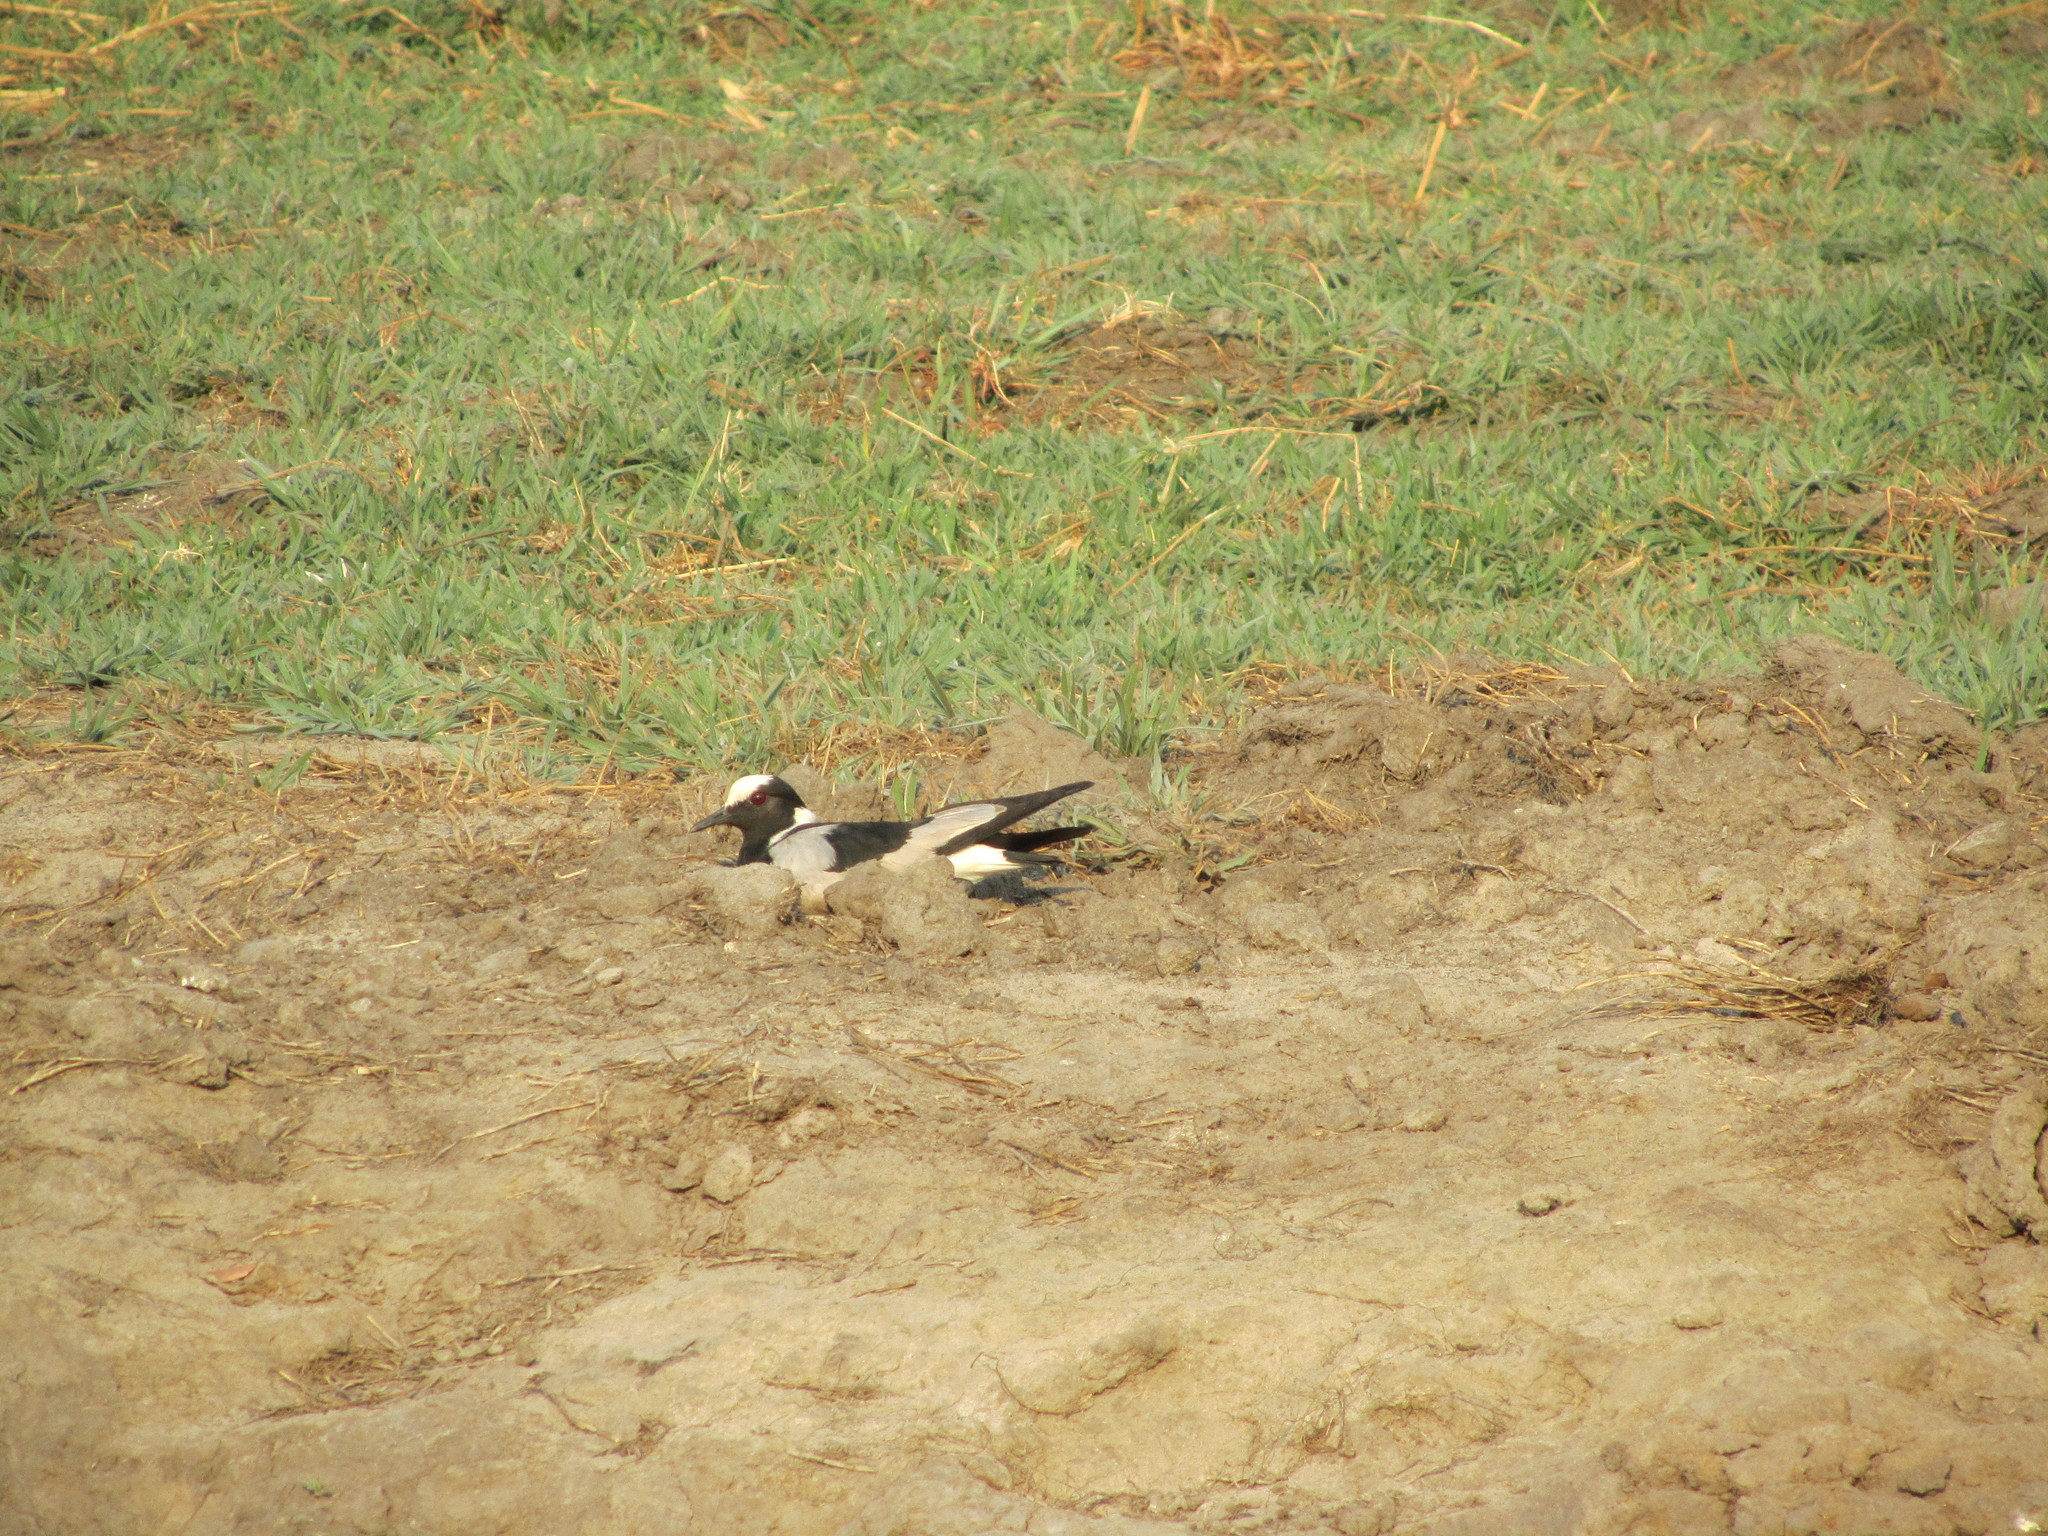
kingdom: Animalia
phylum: Chordata
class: Aves
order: Charadriiformes
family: Charadriidae
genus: Vanellus
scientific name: Vanellus armatus
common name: Blacksmith lapwing
